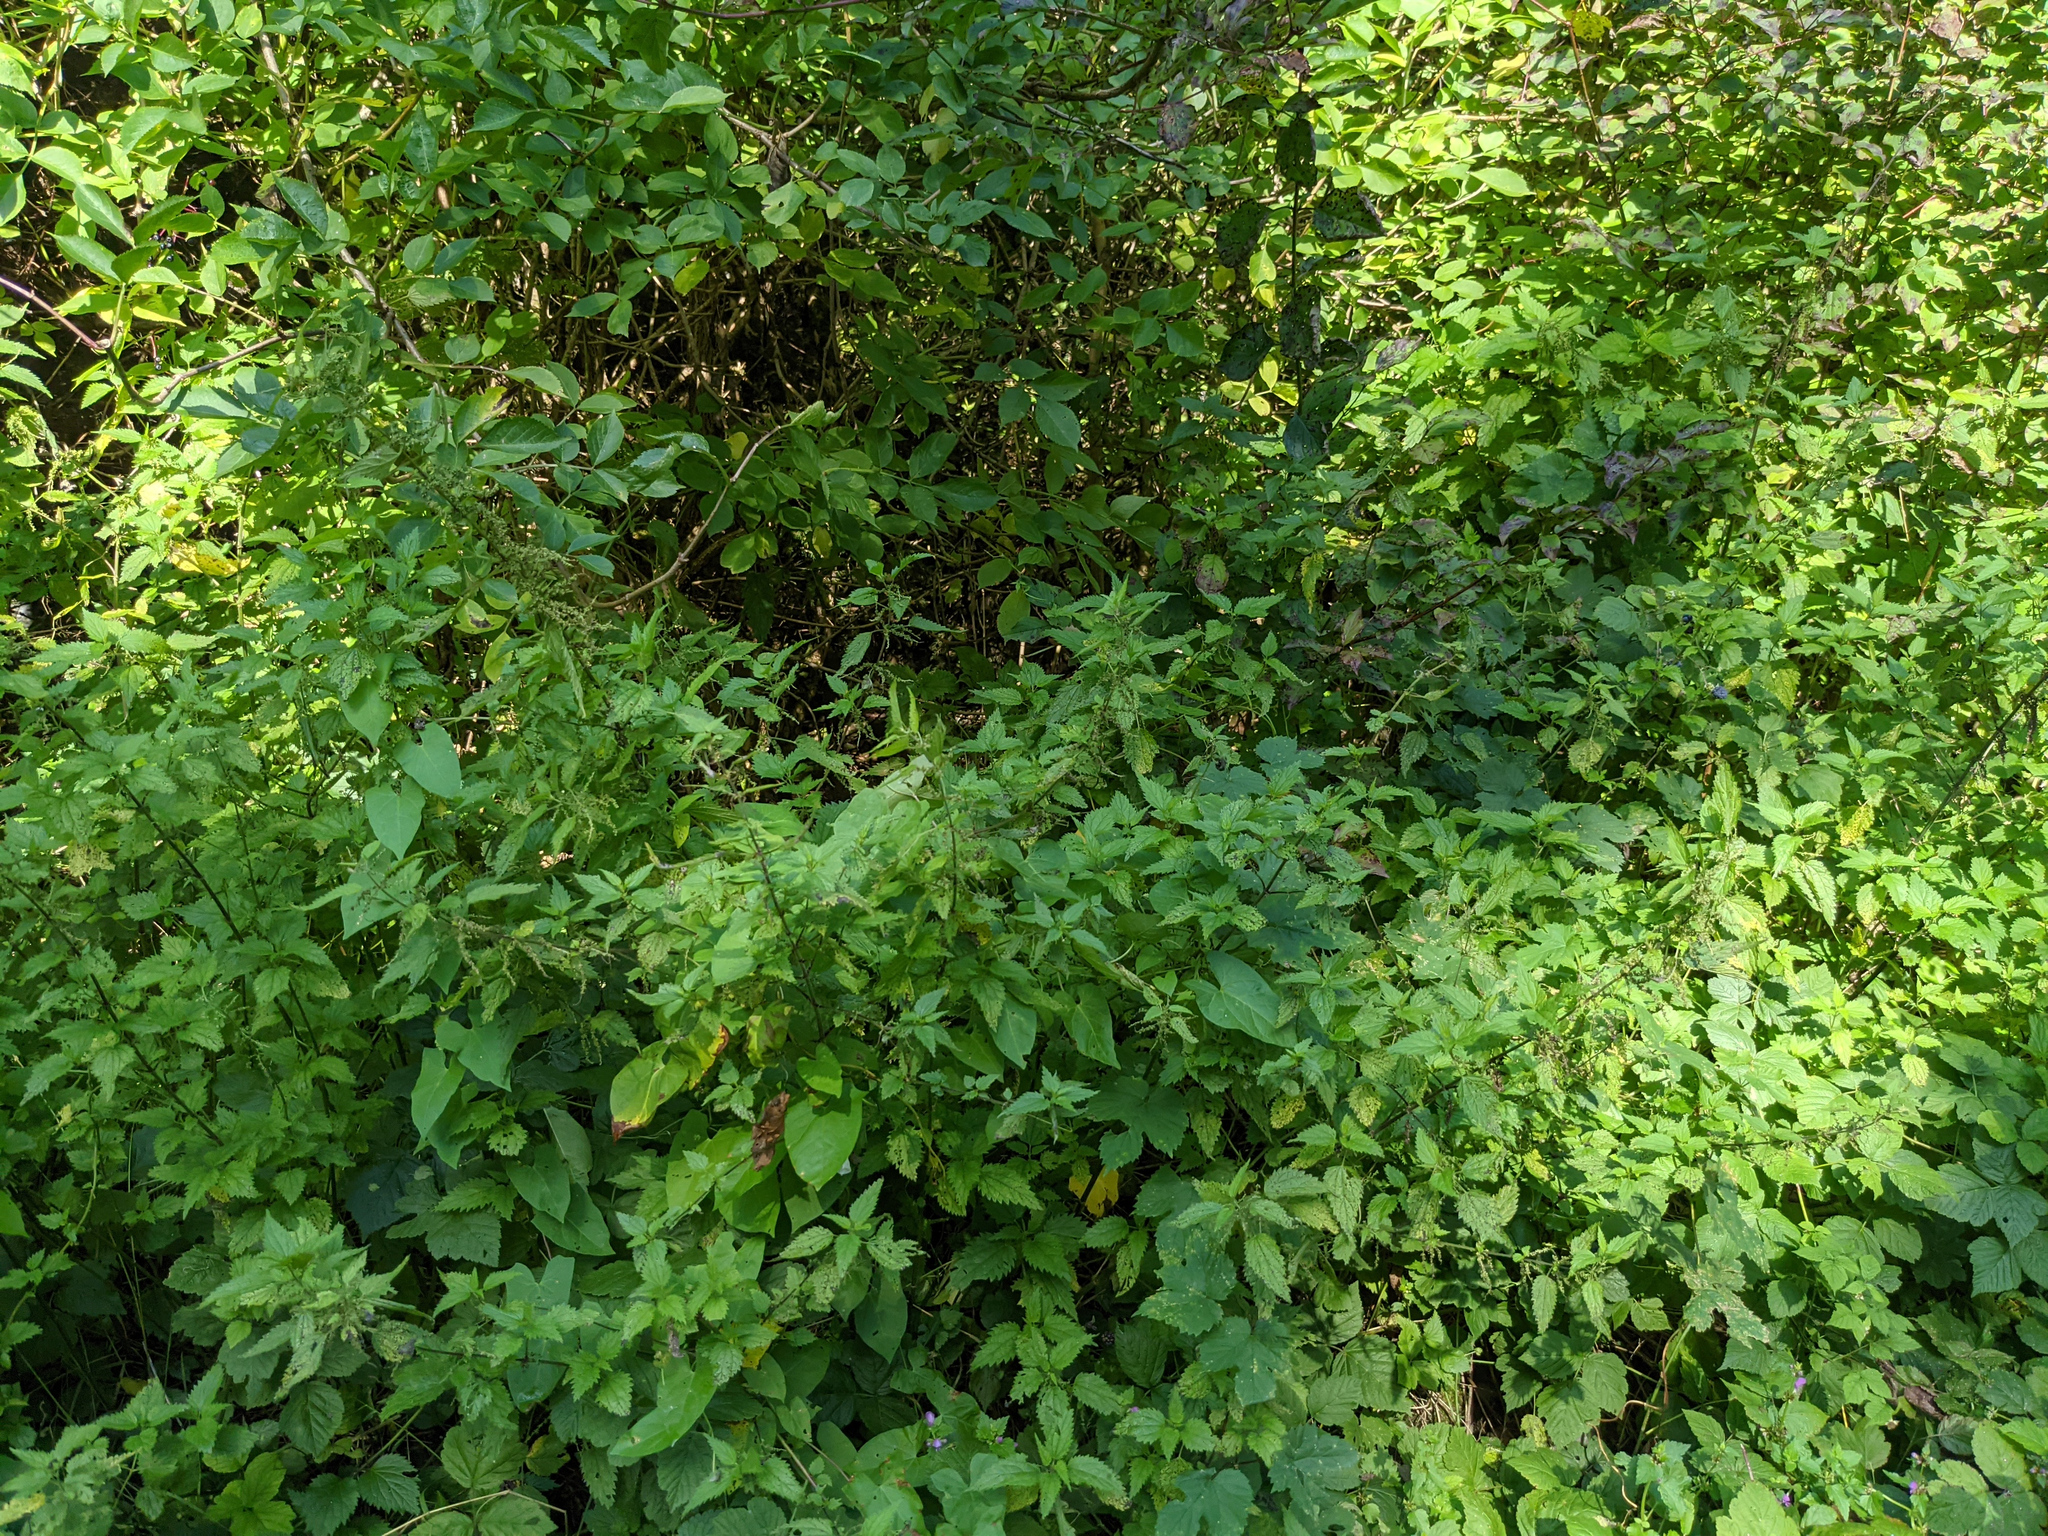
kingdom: Plantae
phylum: Tracheophyta
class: Magnoliopsida
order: Rosales
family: Urticaceae
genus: Urtica
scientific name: Urtica dioica
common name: Common nettle
